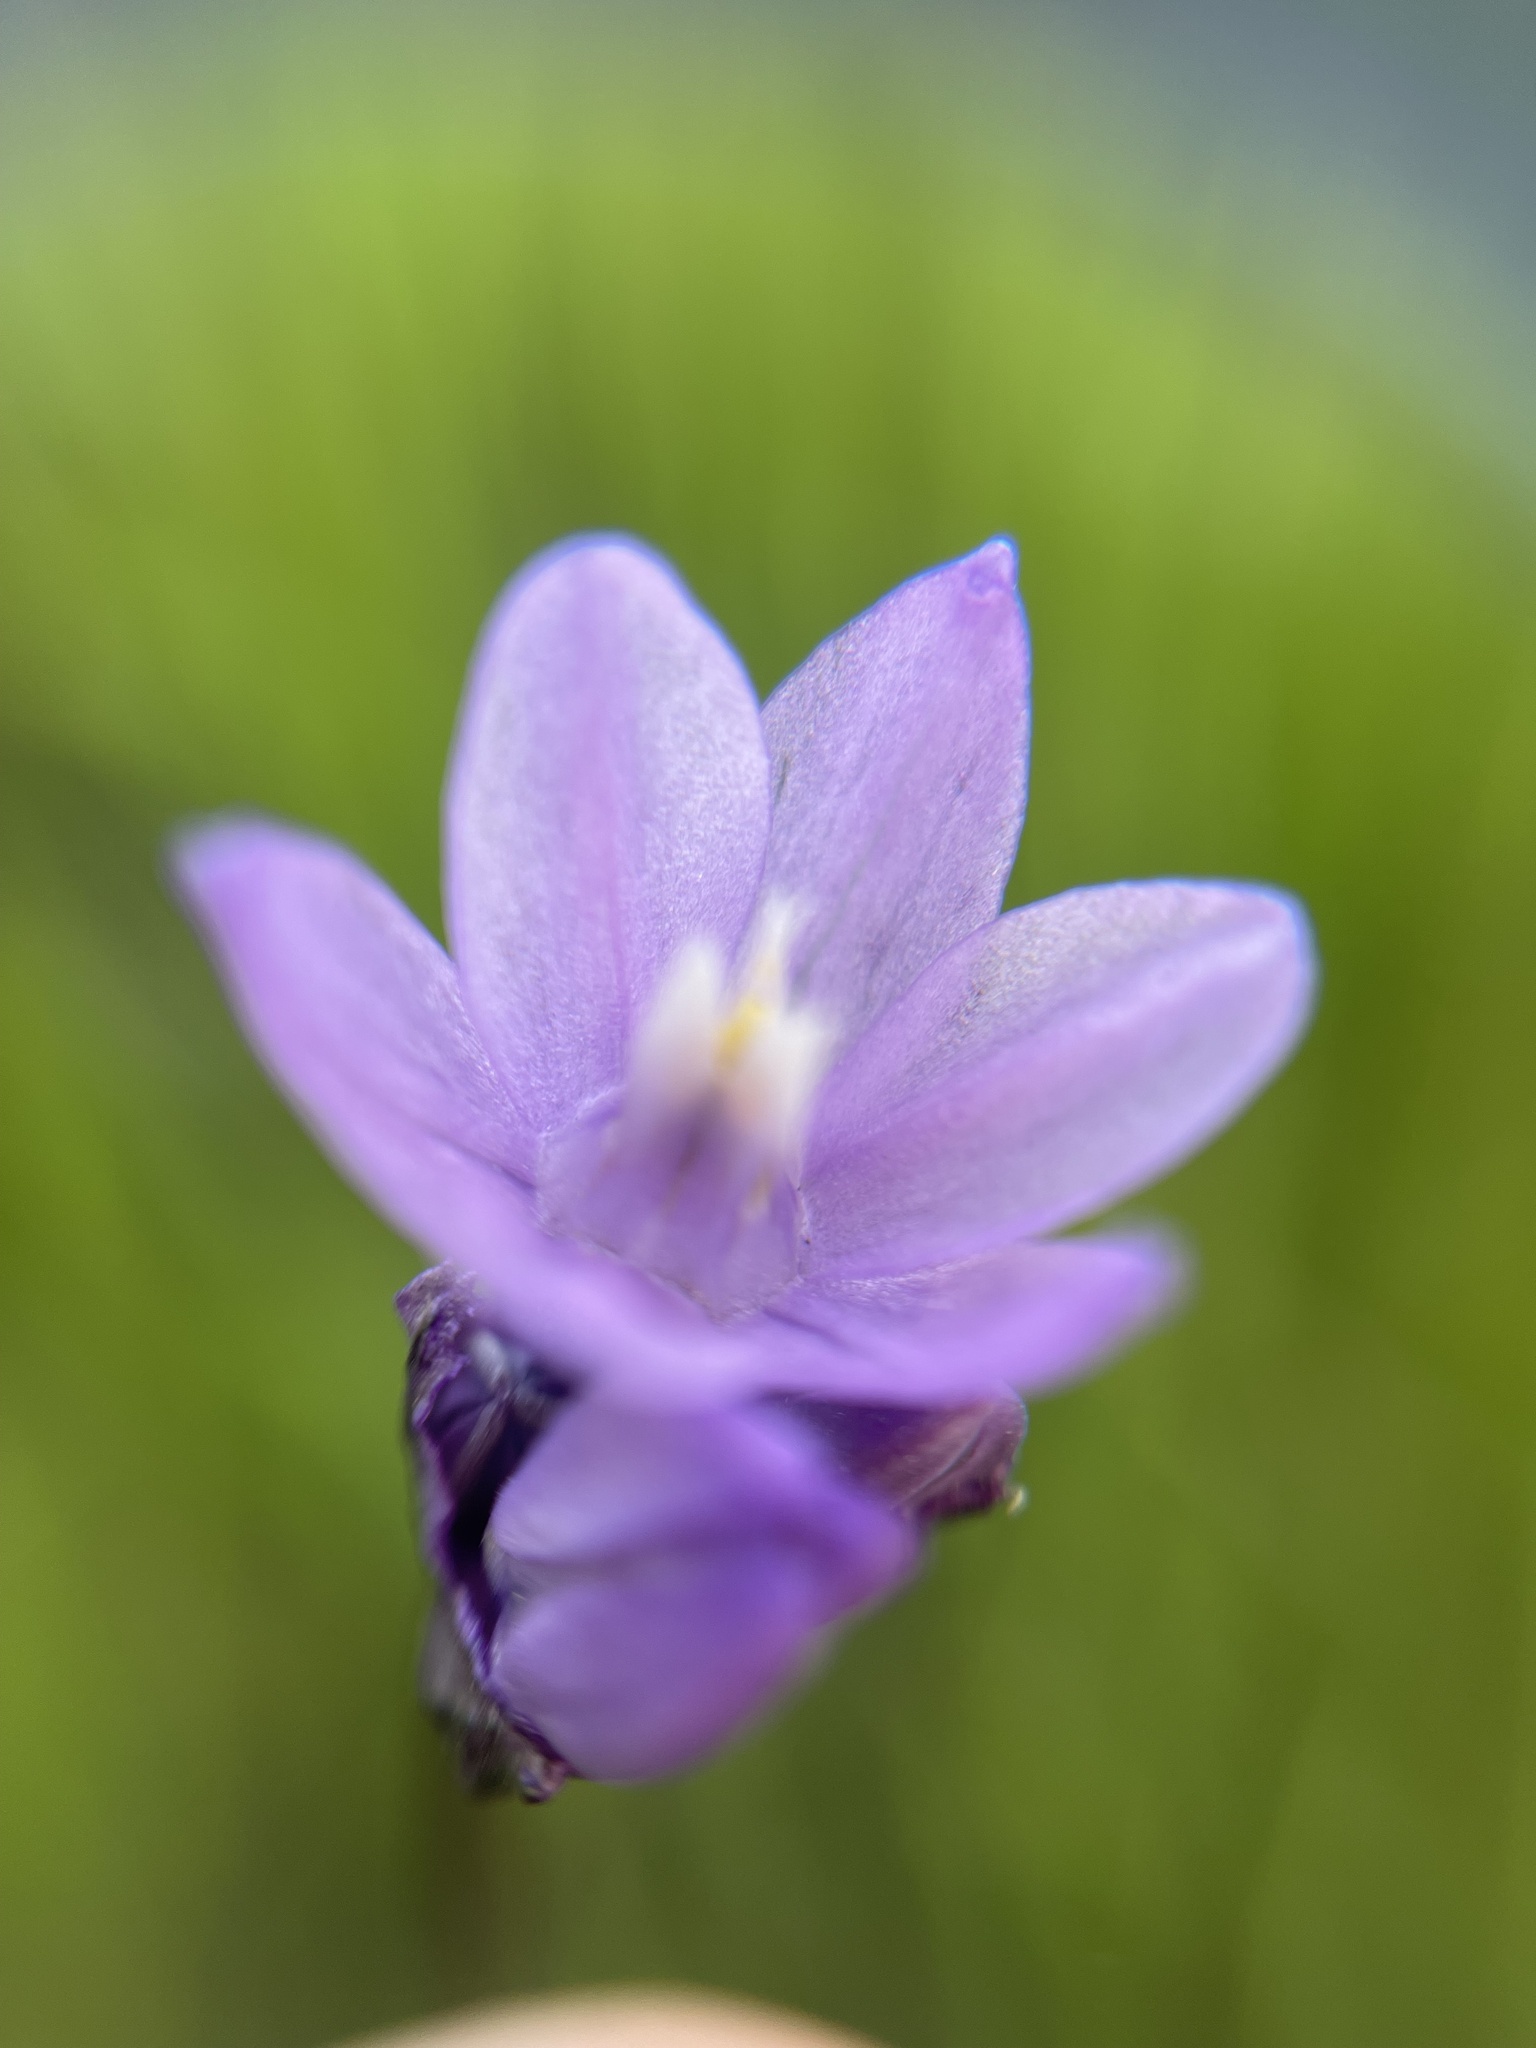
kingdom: Plantae
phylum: Tracheophyta
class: Liliopsida
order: Asparagales
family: Asparagaceae
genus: Dipterostemon
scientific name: Dipterostemon capitatus
